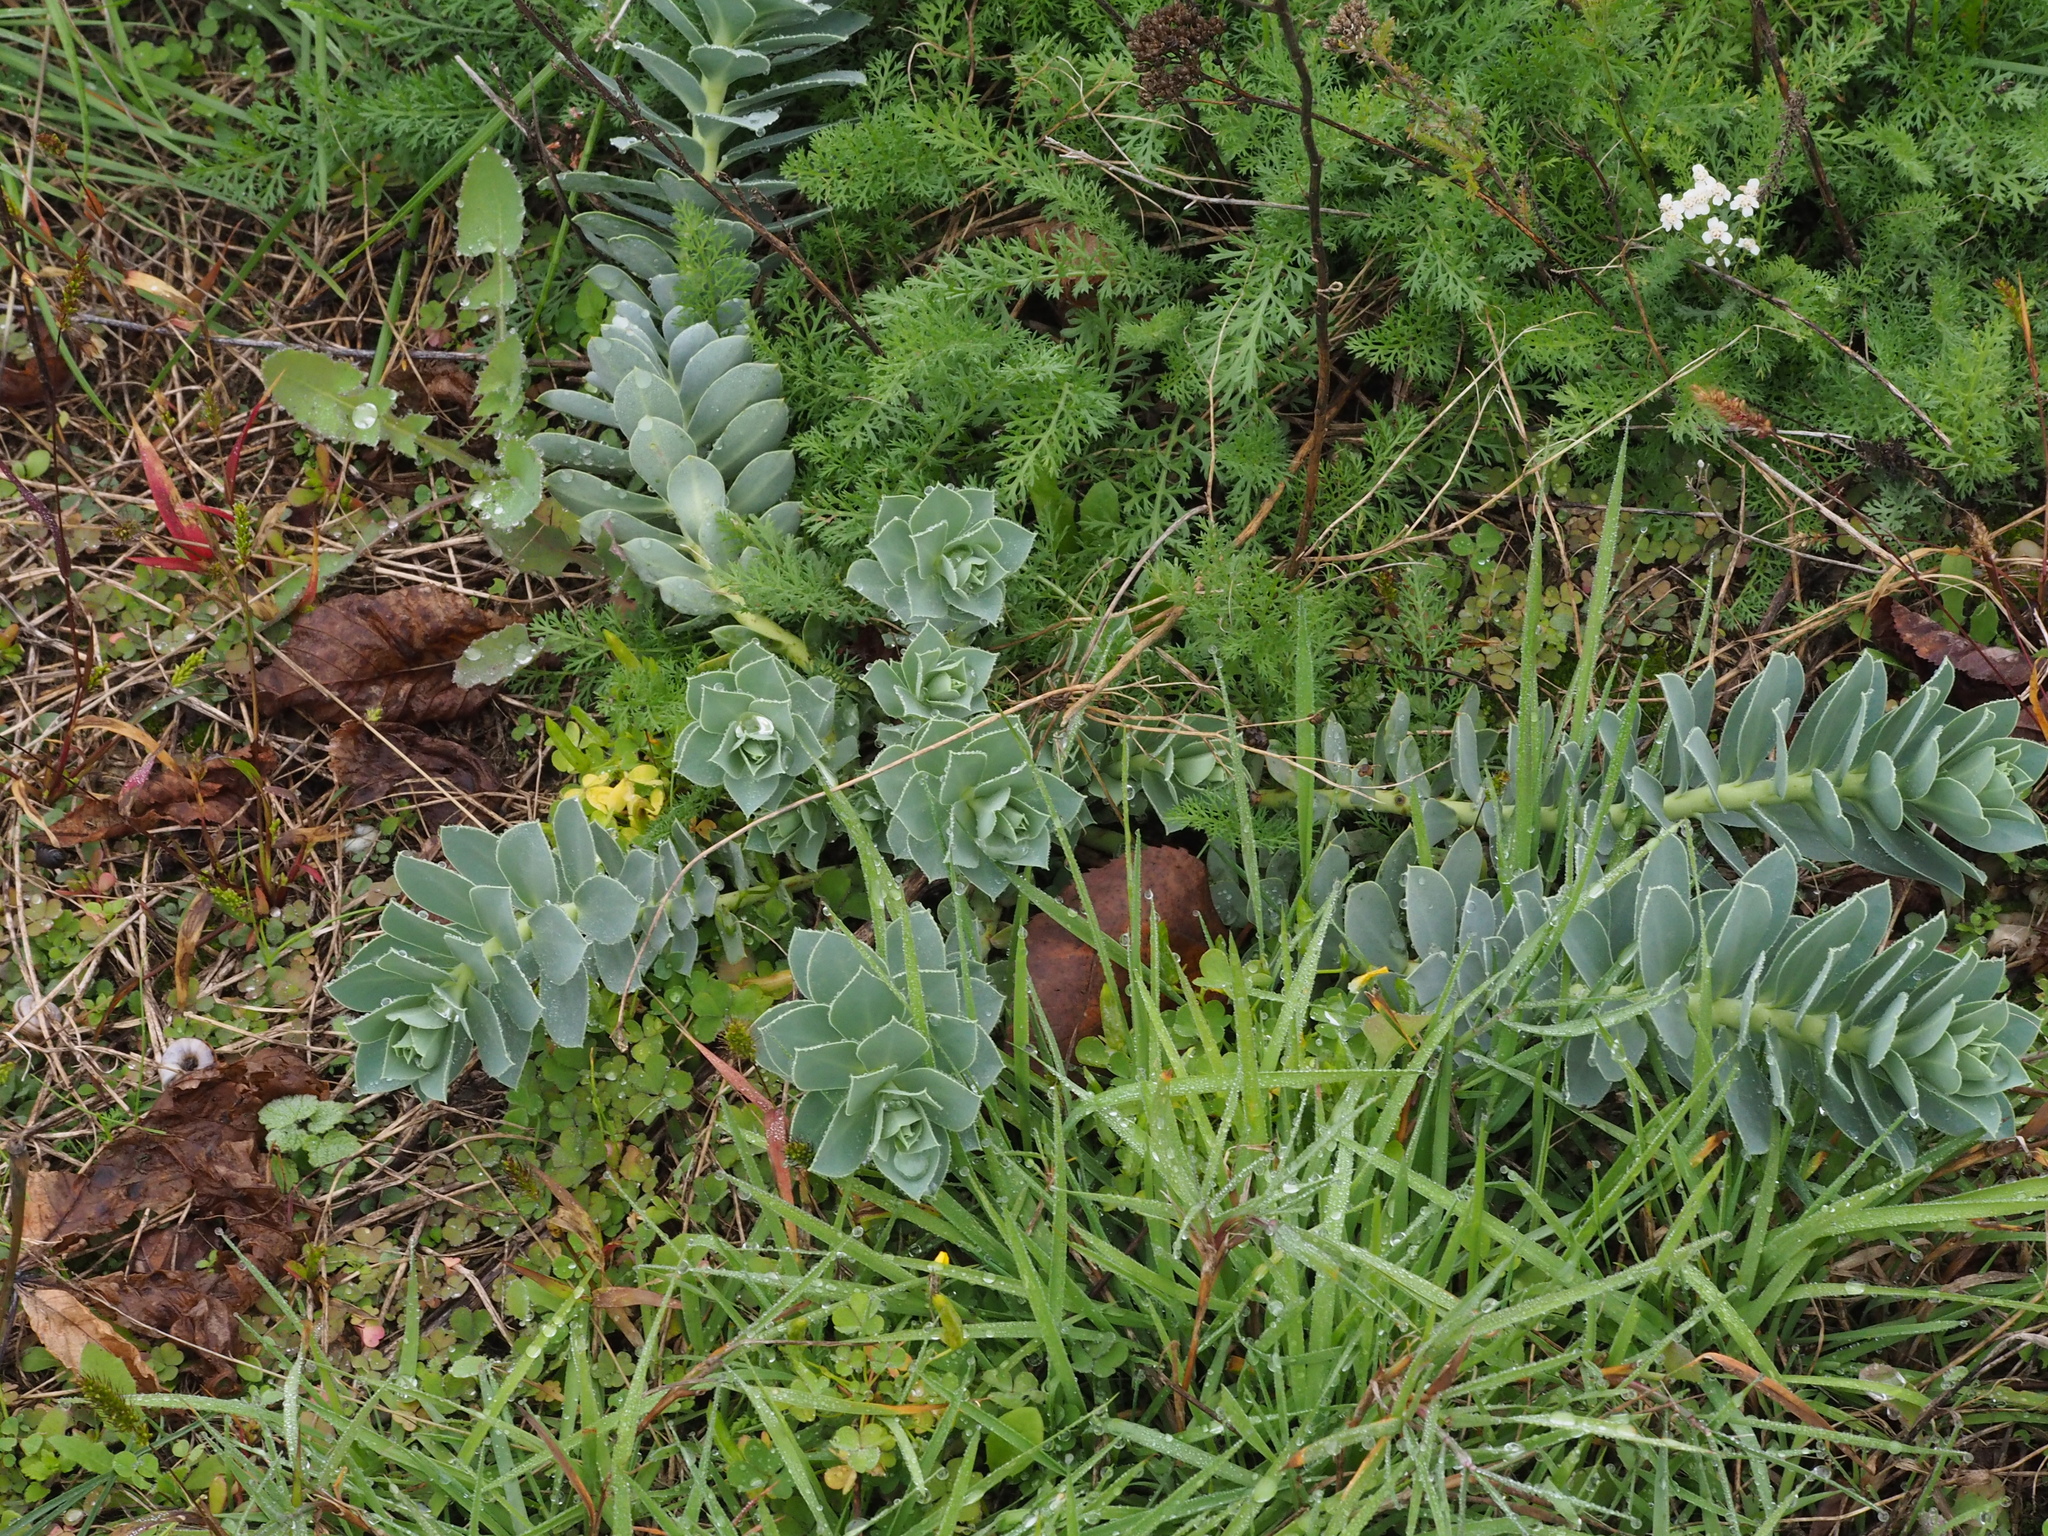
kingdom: Plantae
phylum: Tracheophyta
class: Magnoliopsida
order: Malpighiales
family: Euphorbiaceae
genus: Euphorbia
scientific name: Euphorbia myrsinites
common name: Myrtle spurge
